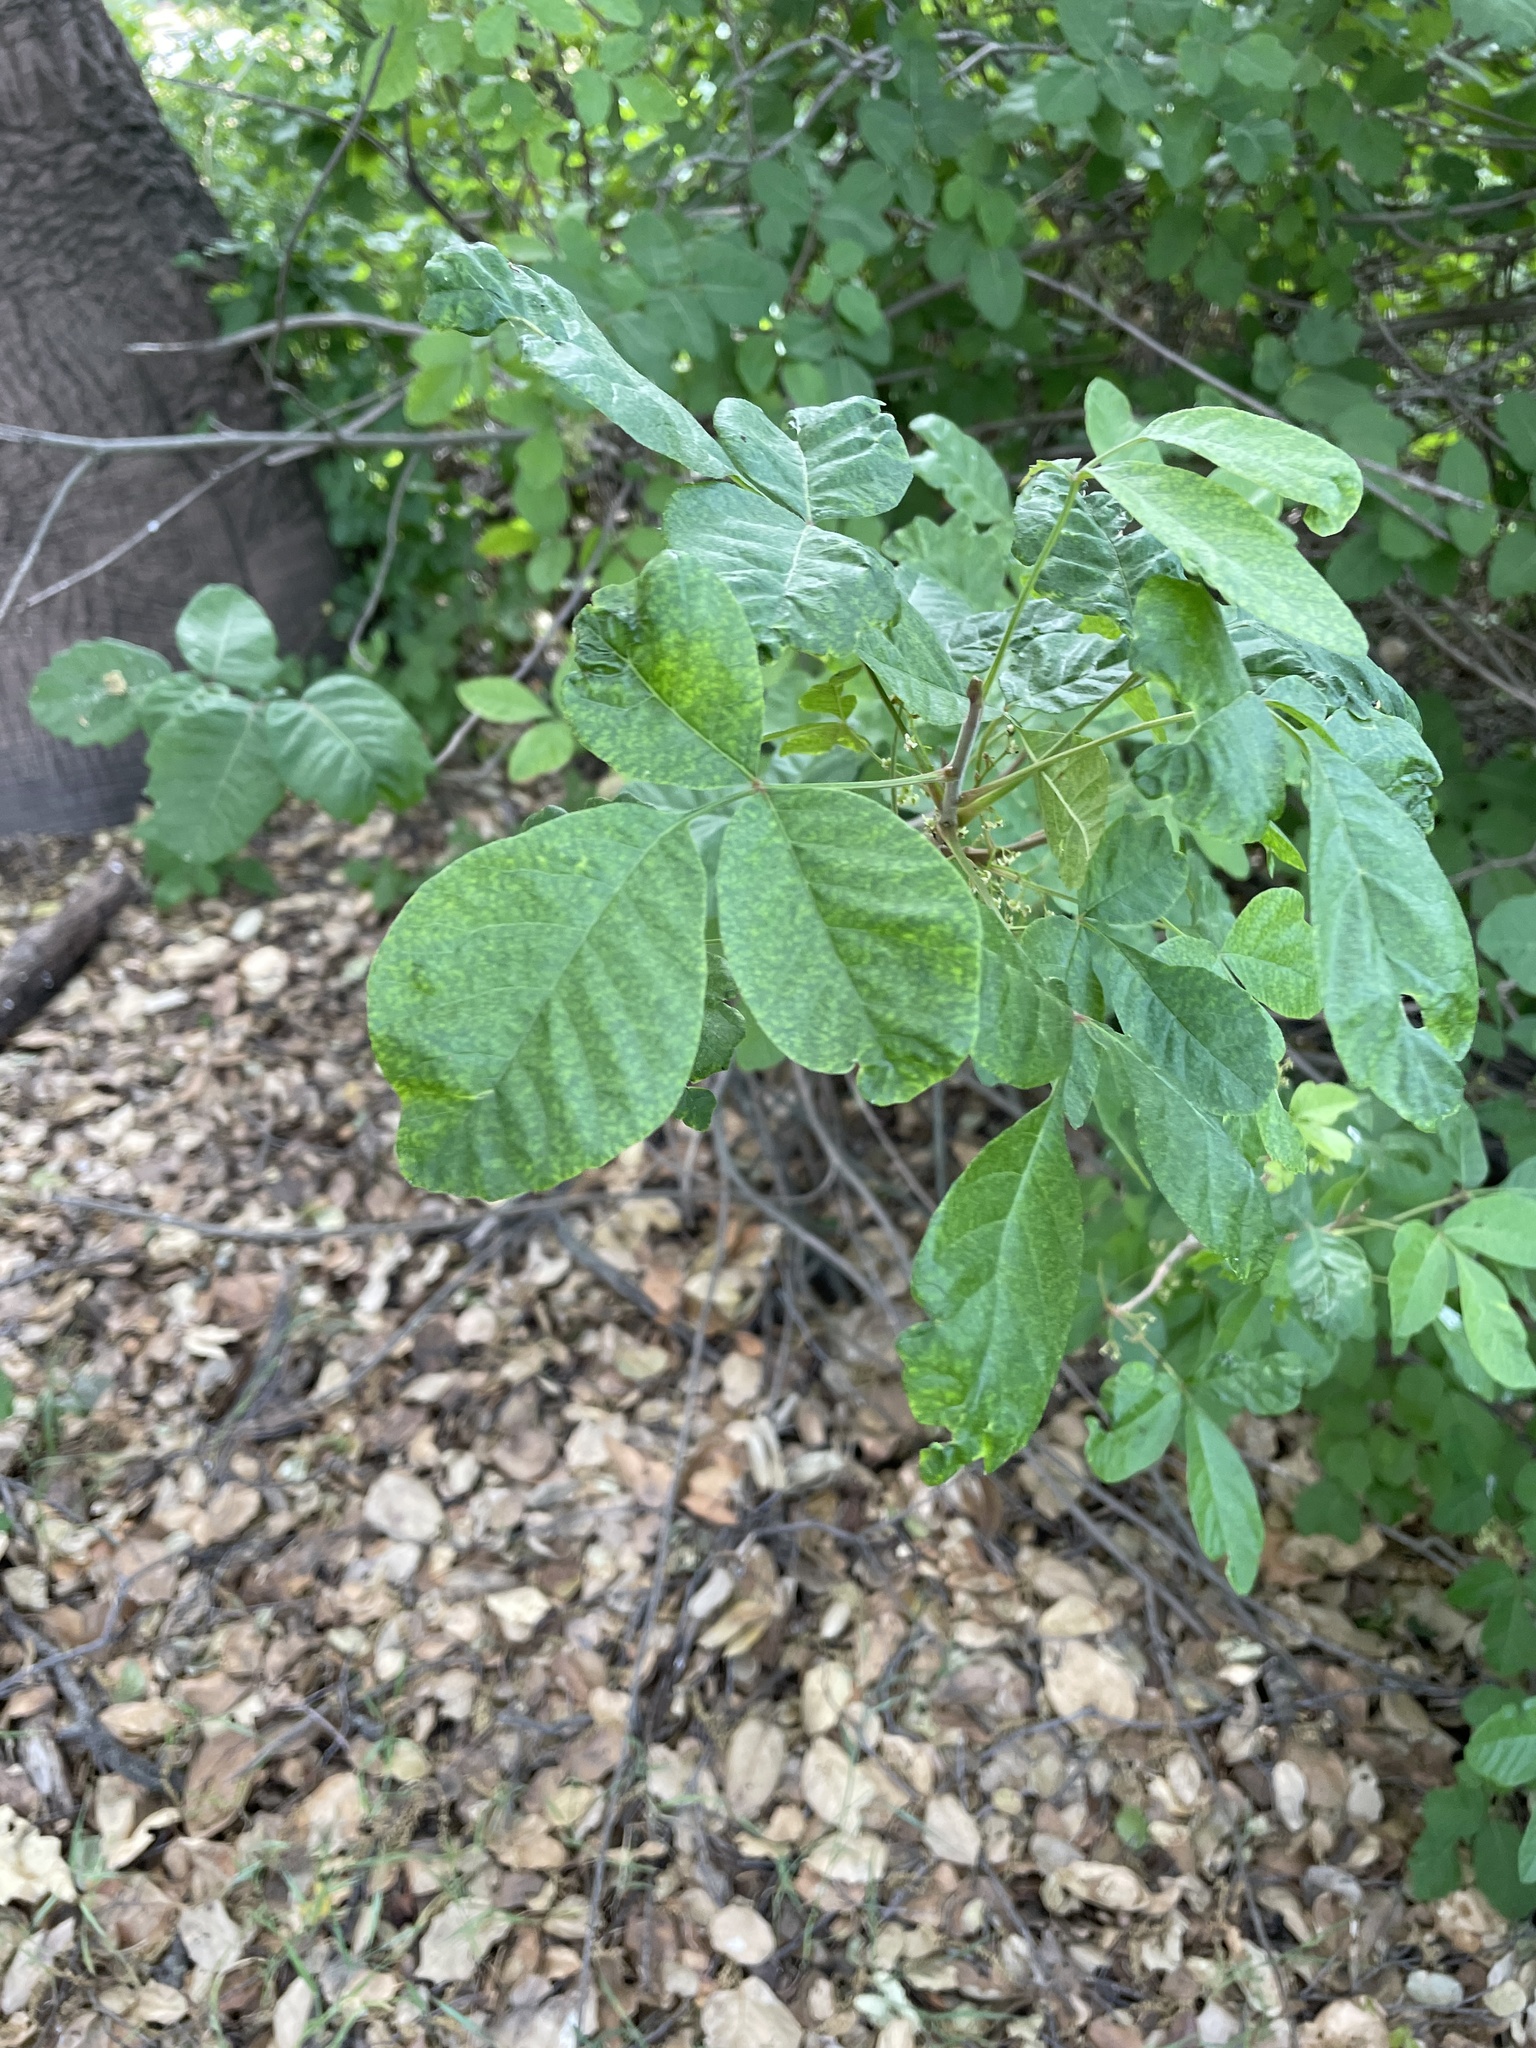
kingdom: Plantae
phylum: Tracheophyta
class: Magnoliopsida
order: Sapindales
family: Anacardiaceae
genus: Toxicodendron
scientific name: Toxicodendron diversilobum
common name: Pacific poison-oak
